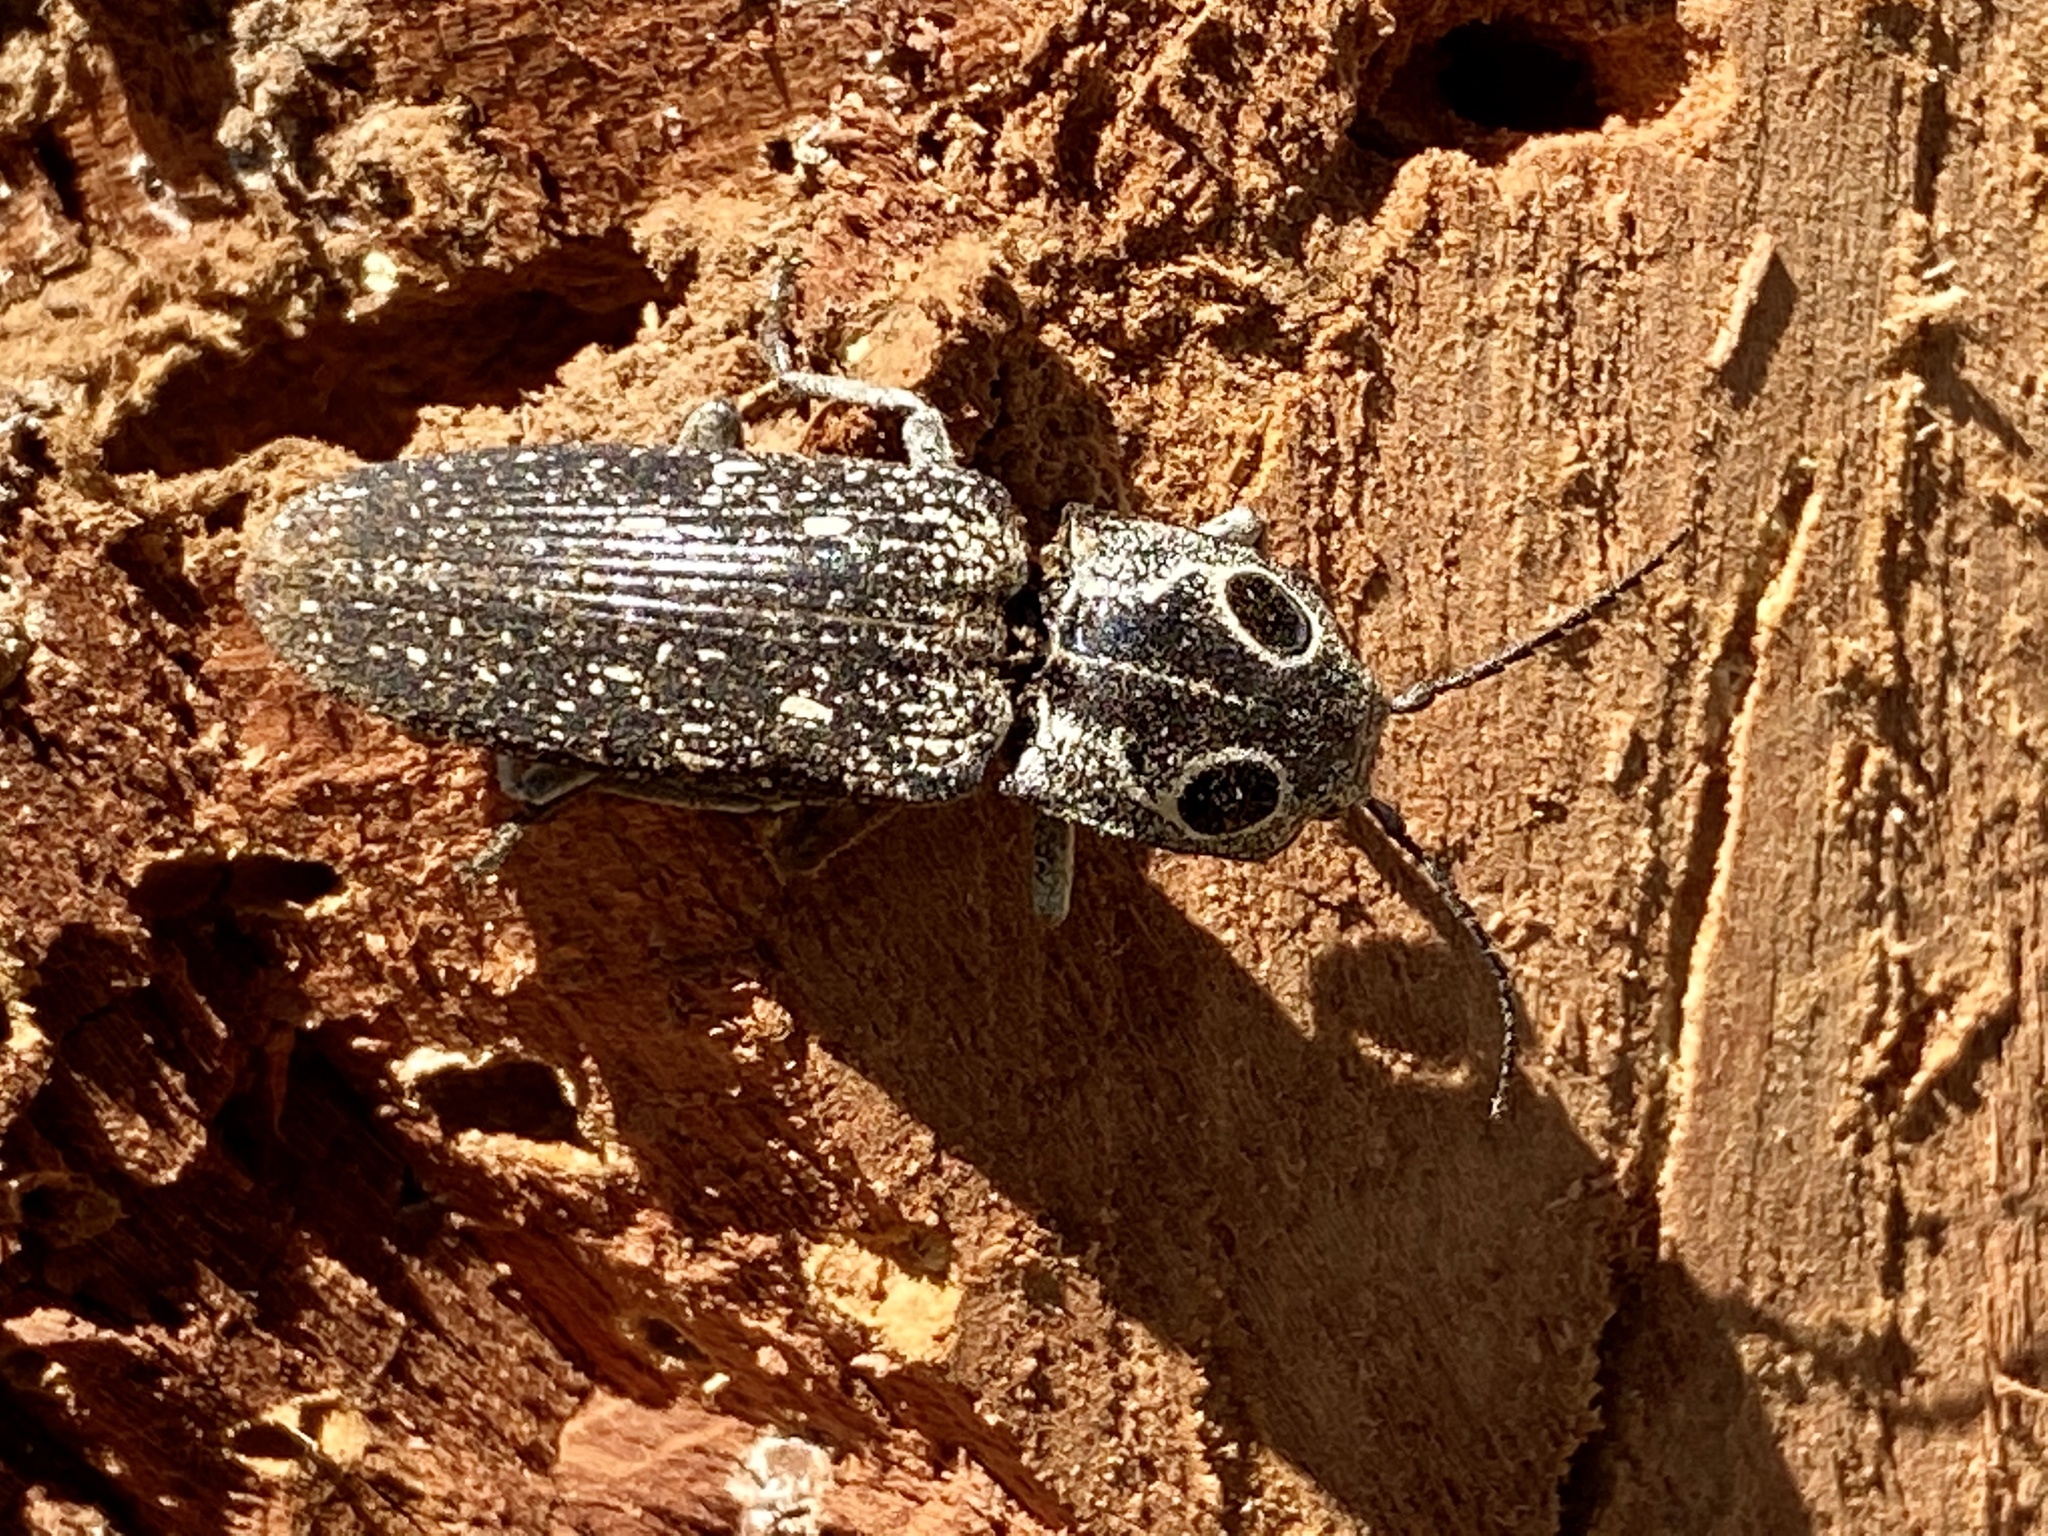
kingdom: Animalia
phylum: Arthropoda
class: Insecta
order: Coleoptera
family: Elateridae
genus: Alaus
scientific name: Alaus oculatus
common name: Eastern eyed click beetle
